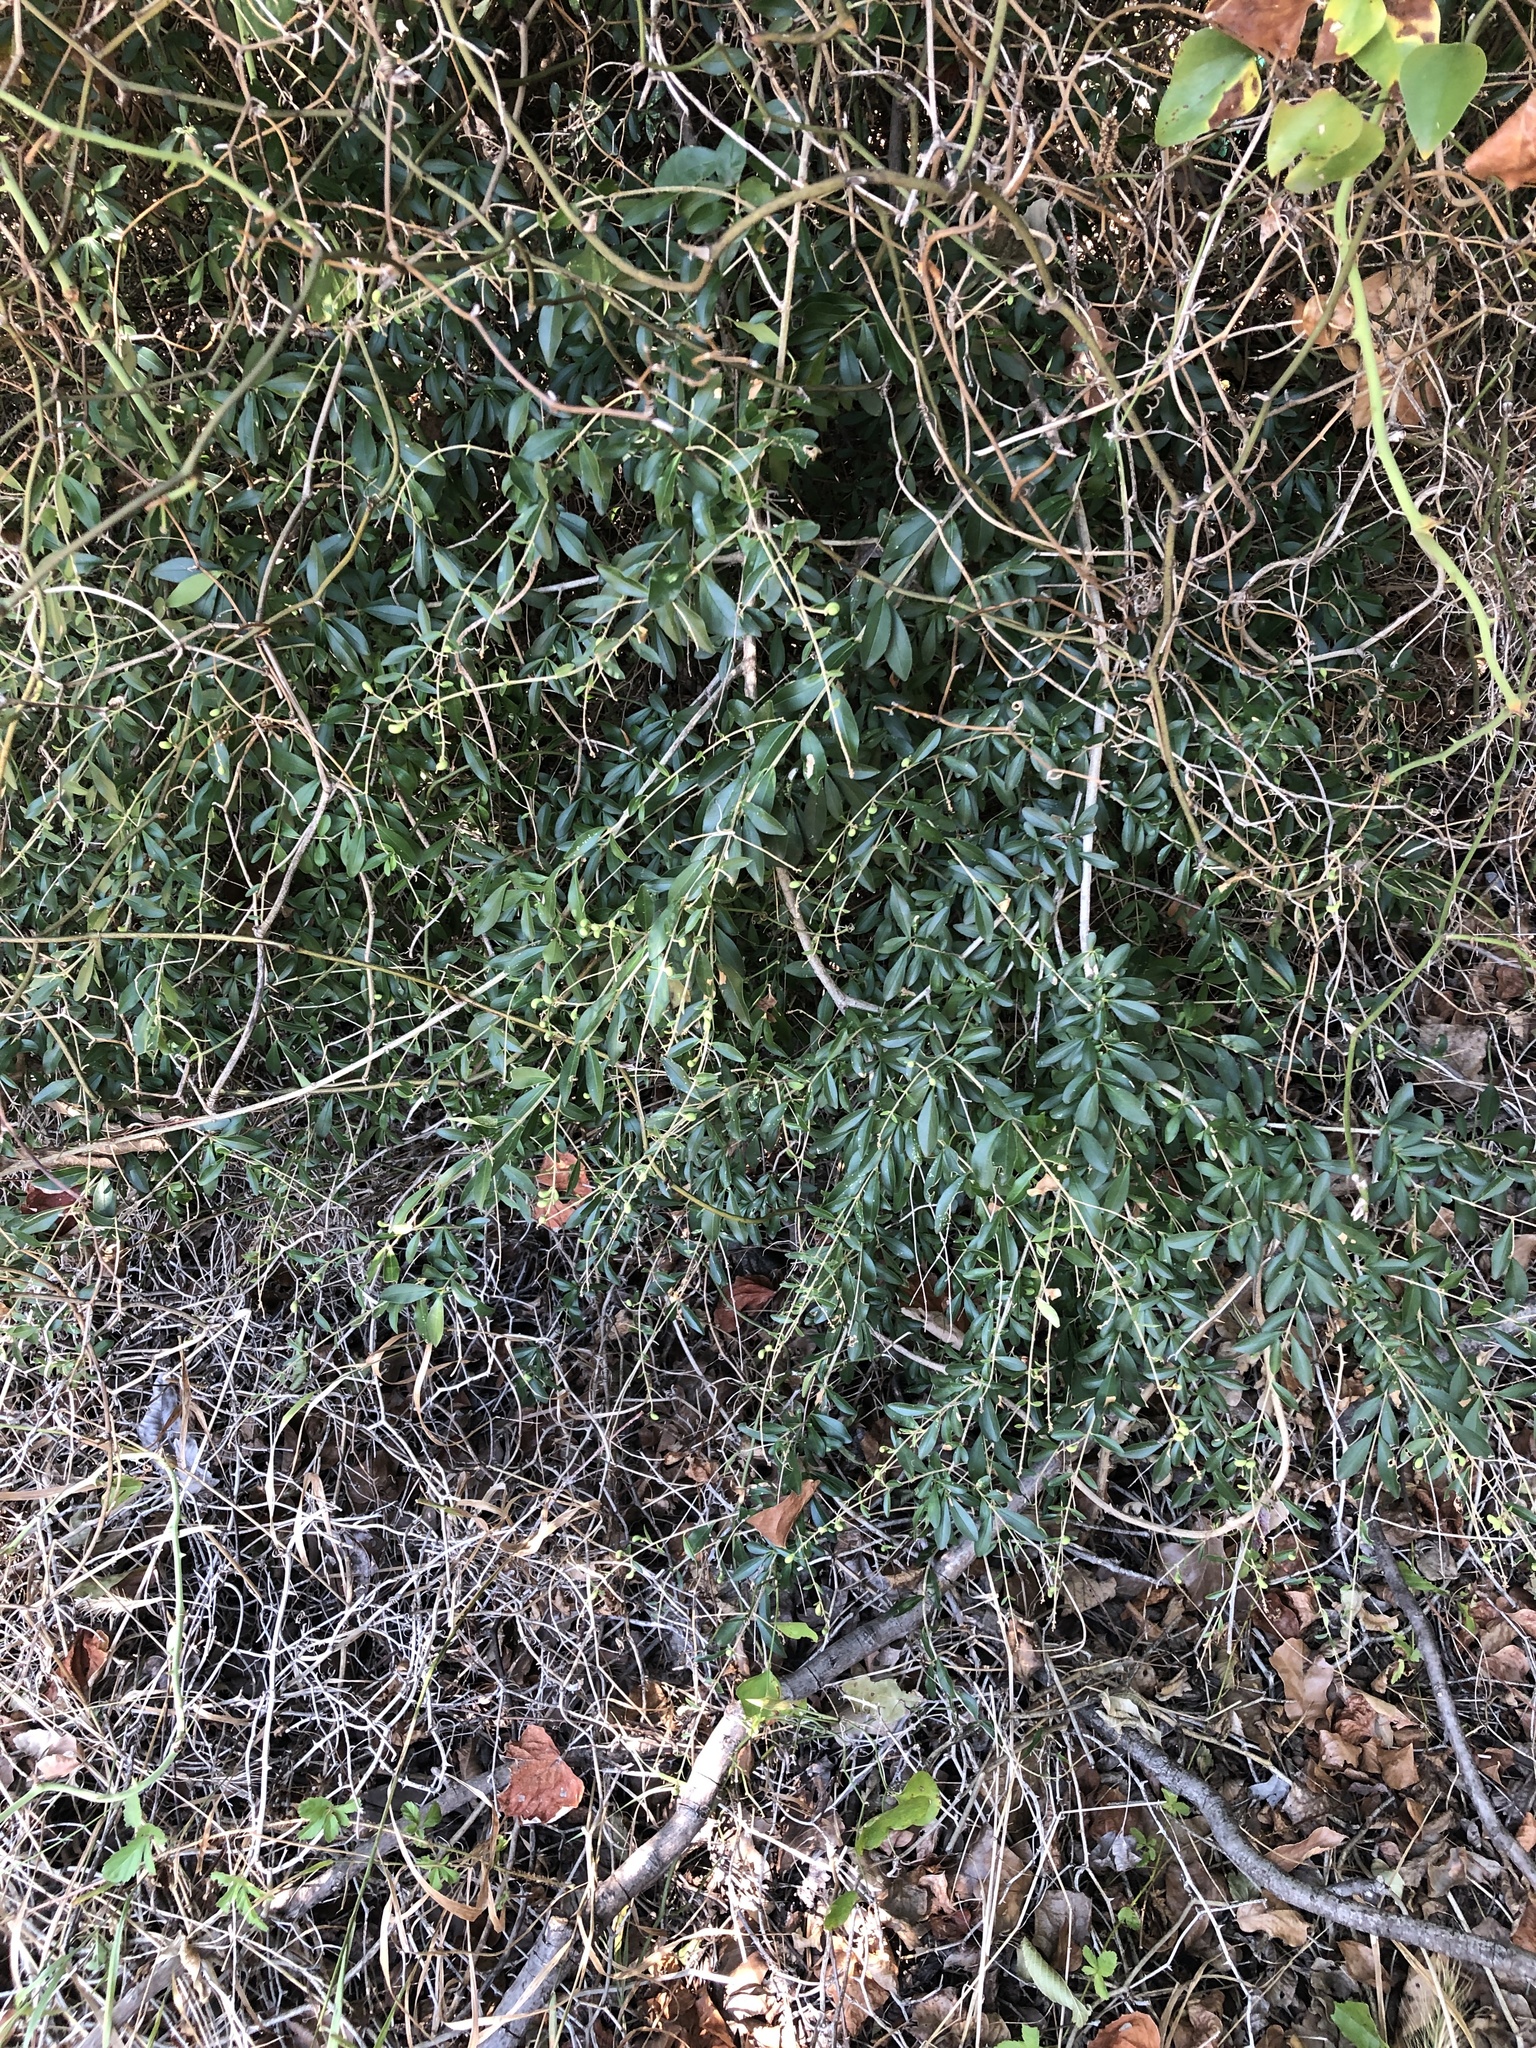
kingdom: Plantae
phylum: Tracheophyta
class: Magnoliopsida
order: Lamiales
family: Oleaceae
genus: Ligustrum
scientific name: Ligustrum quihoui
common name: Waxyleaf privet
